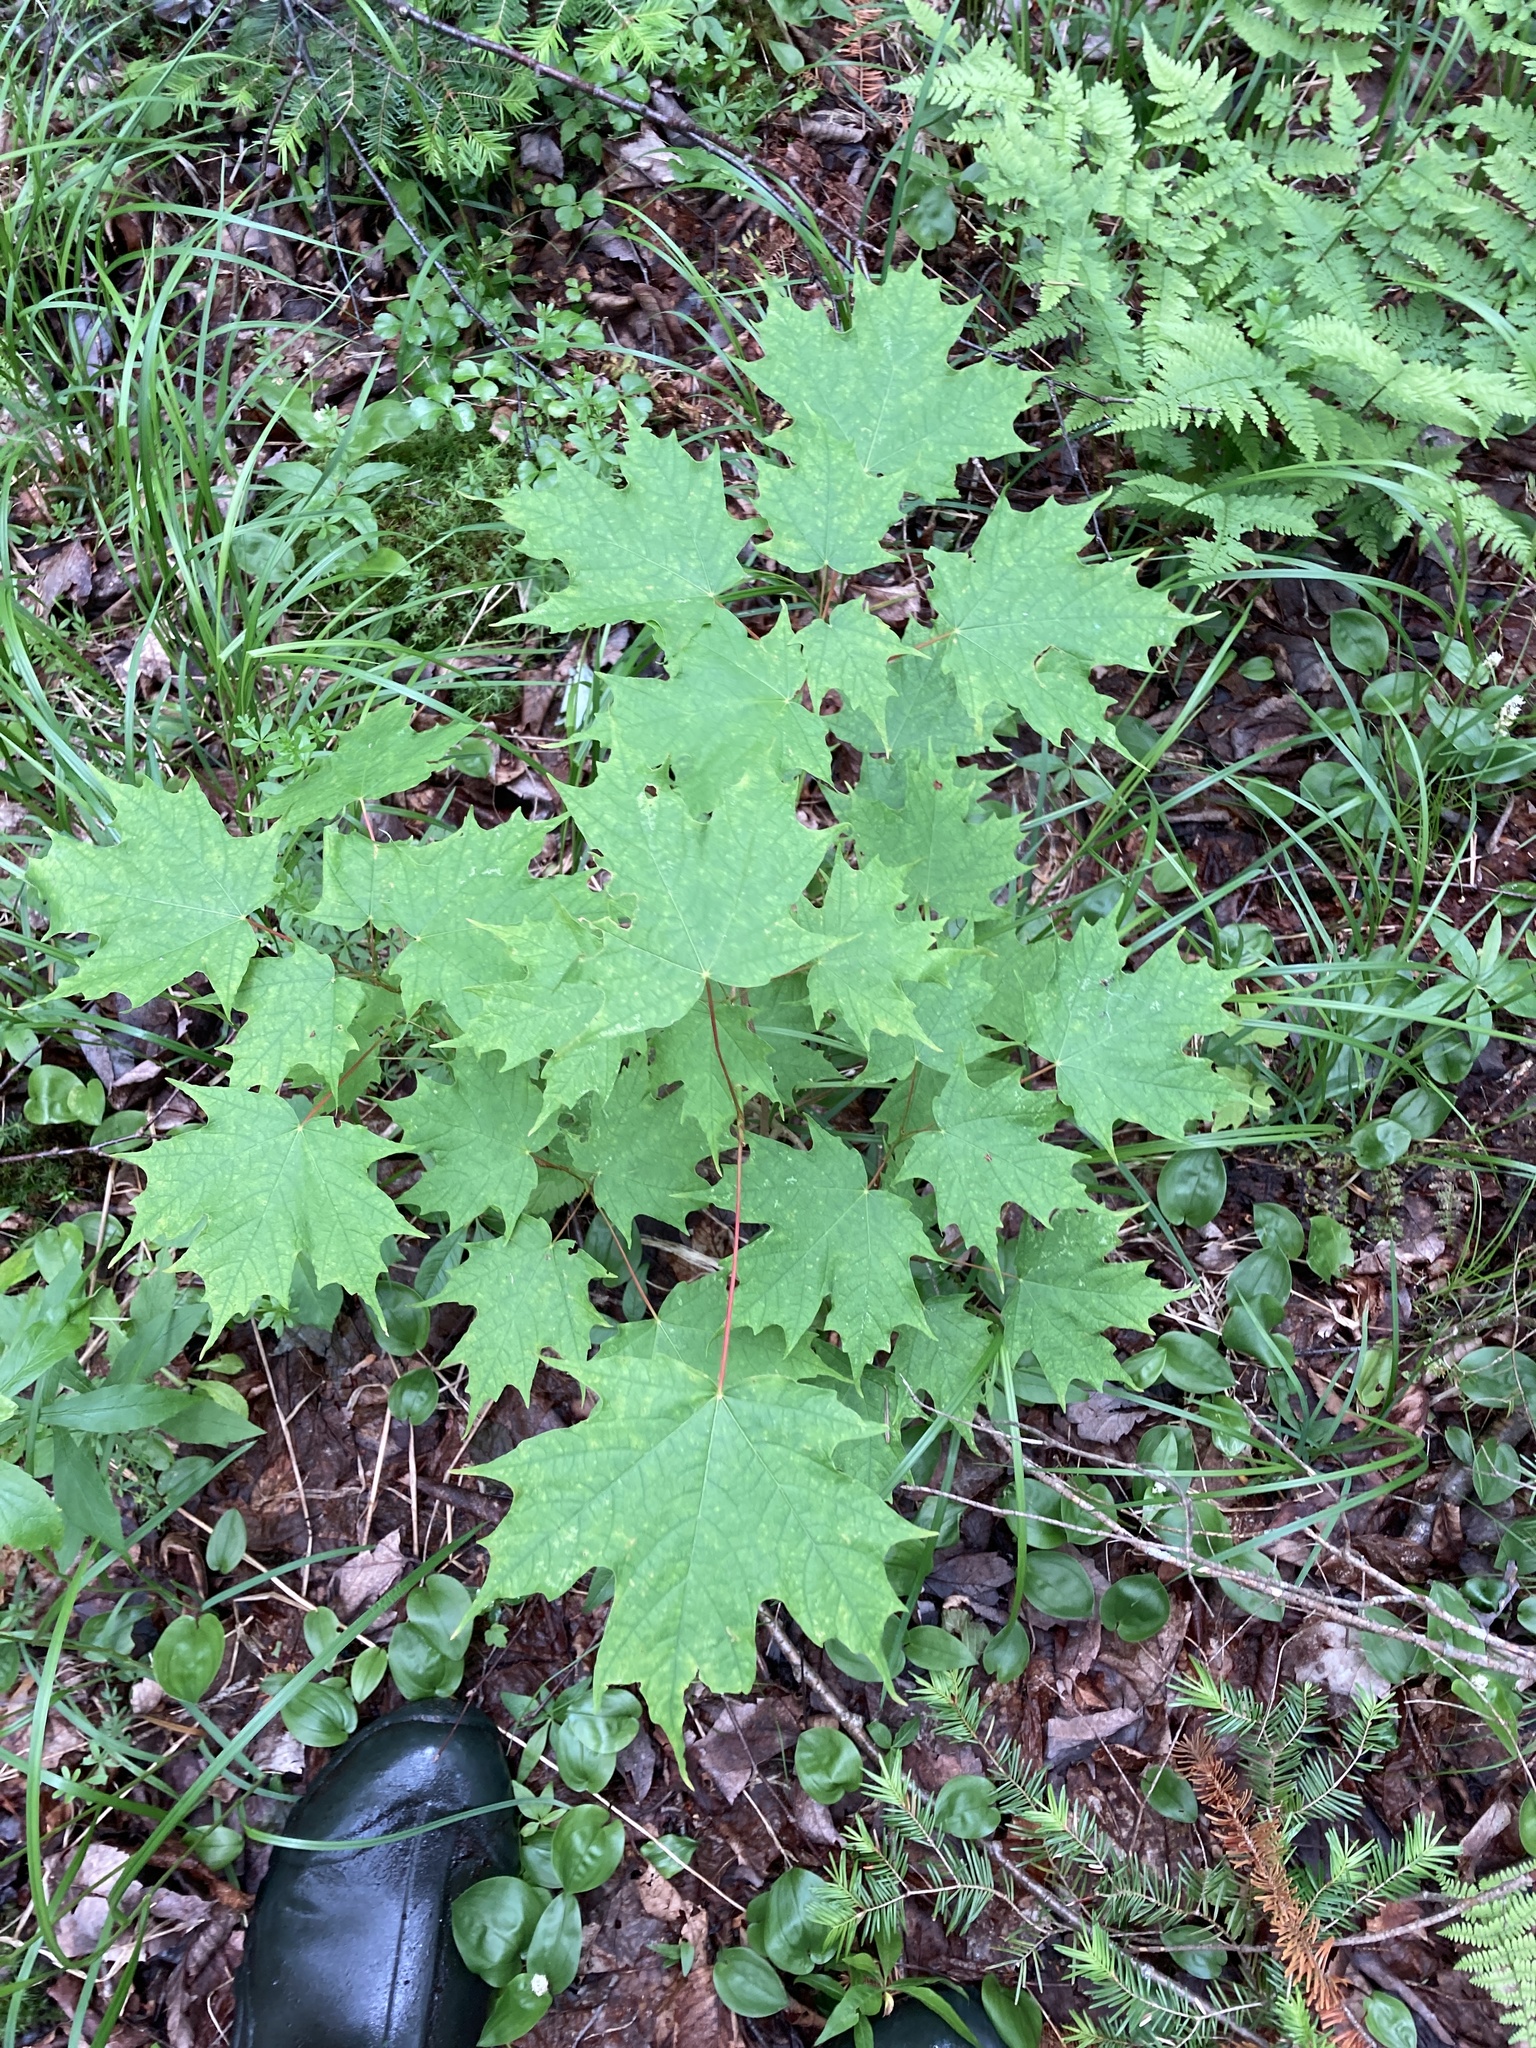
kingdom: Plantae
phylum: Tracheophyta
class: Magnoliopsida
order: Sapindales
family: Sapindaceae
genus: Acer
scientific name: Acer saccharum
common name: Sugar maple
